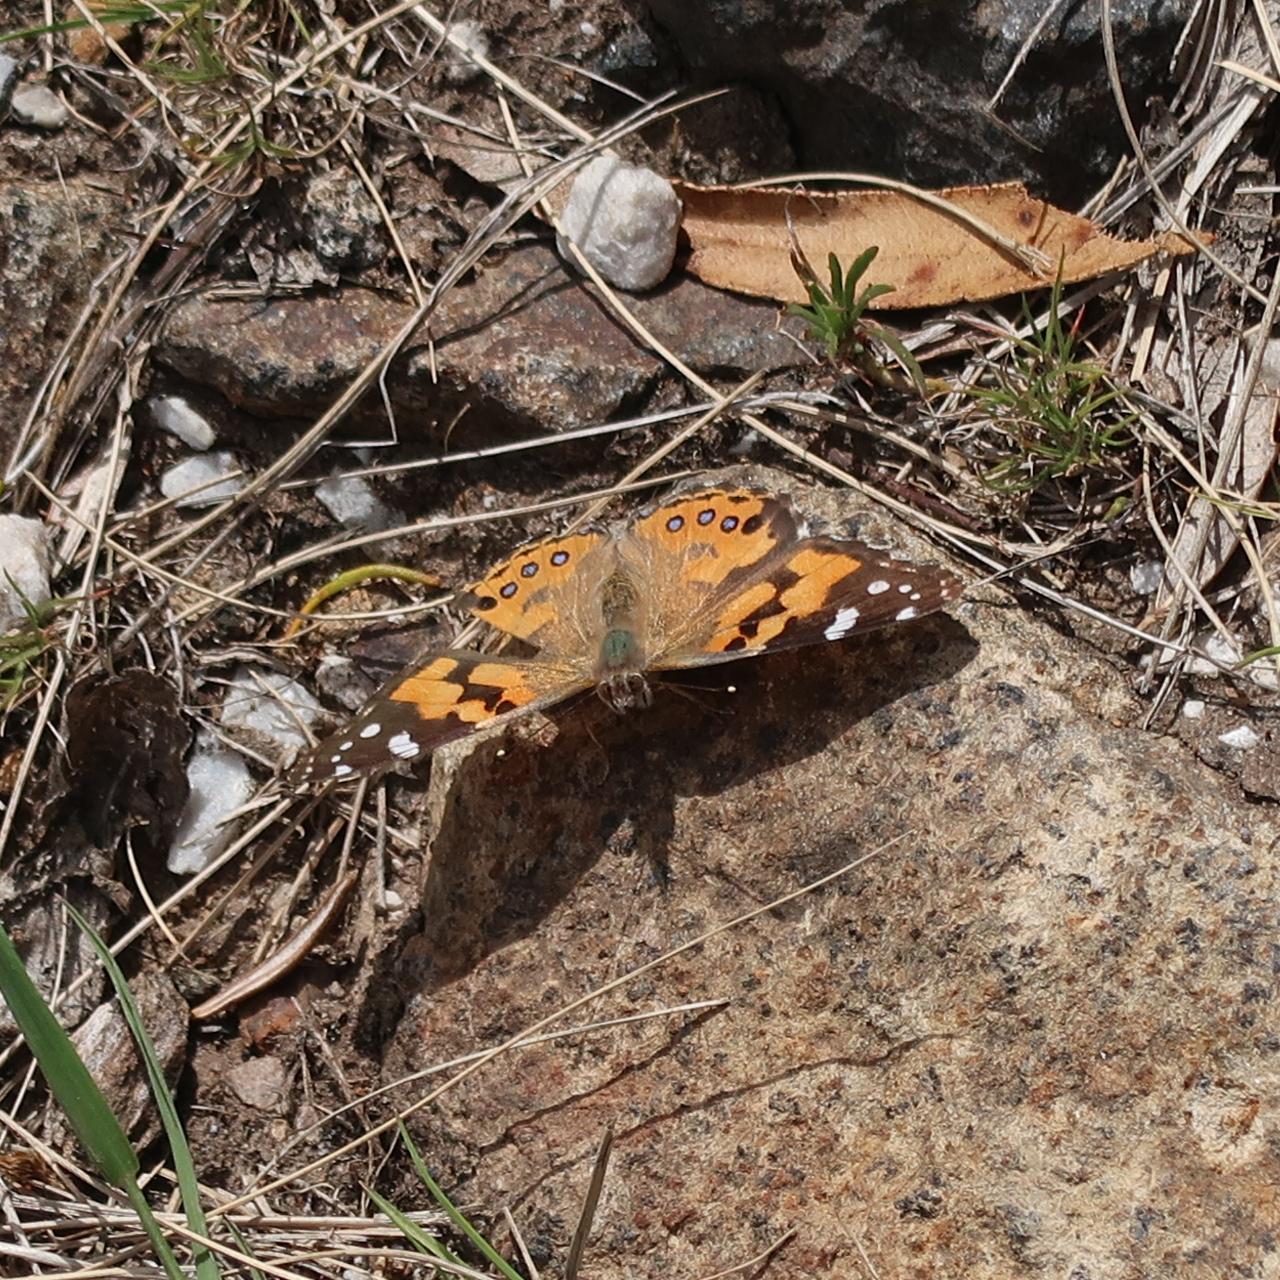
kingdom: Animalia
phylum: Arthropoda
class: Insecta
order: Lepidoptera
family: Nymphalidae
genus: Vanessa
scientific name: Vanessa kershawi
